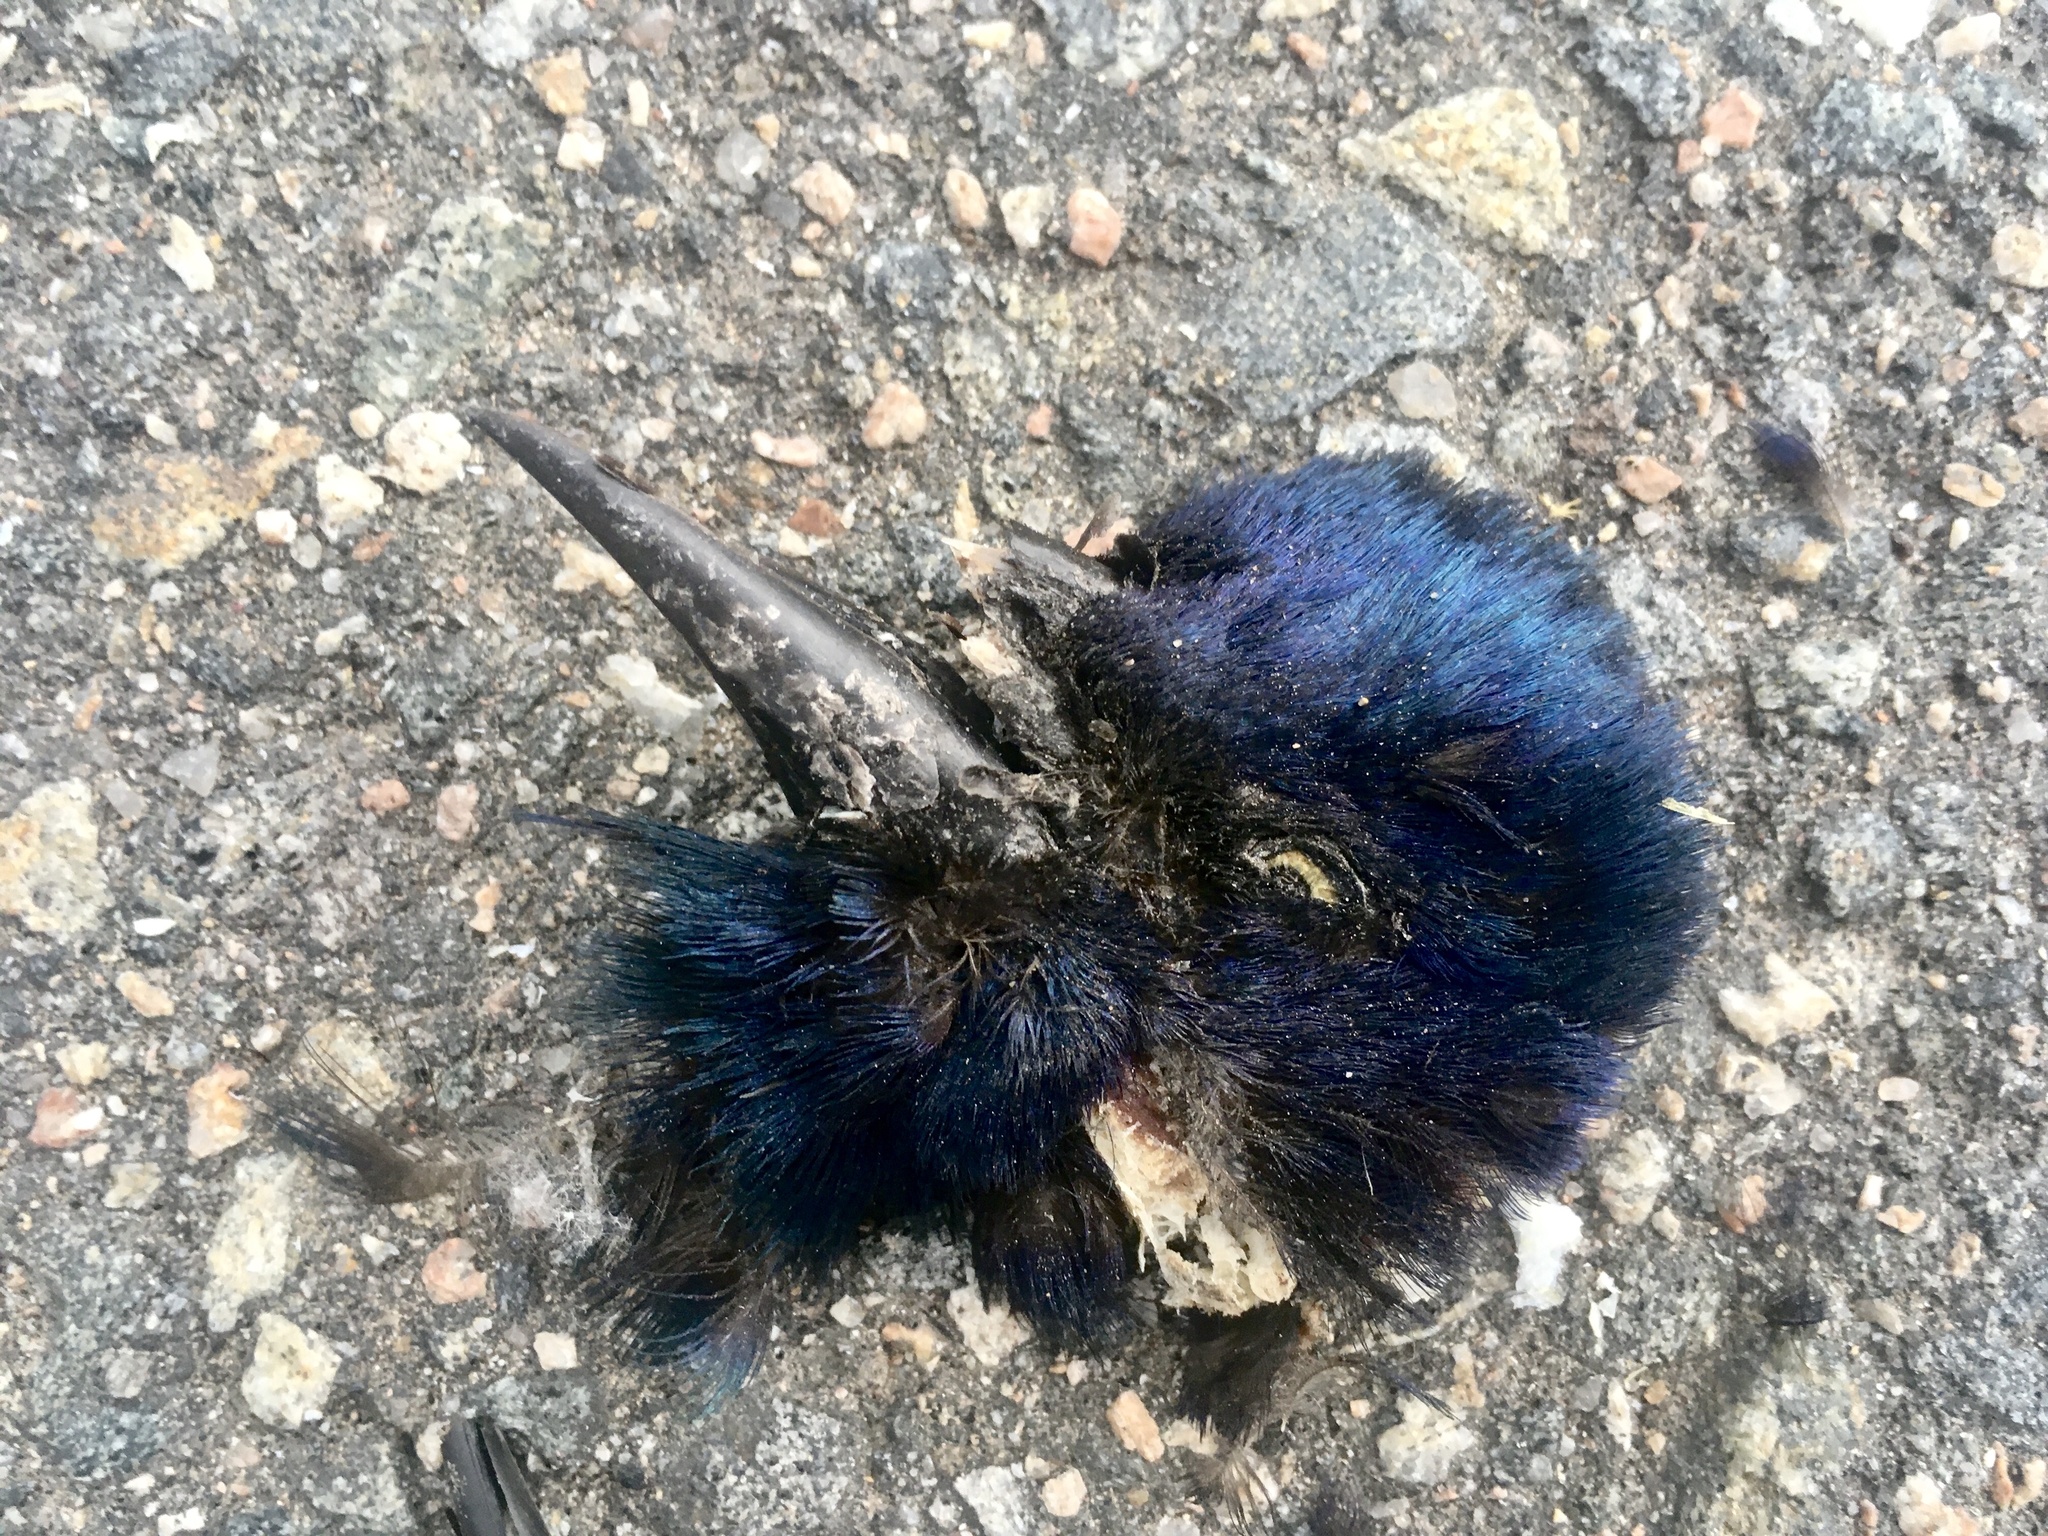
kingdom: Animalia
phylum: Chordata
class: Aves
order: Passeriformes
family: Icteridae
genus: Quiscalus
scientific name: Quiscalus quiscula
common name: Common grackle
